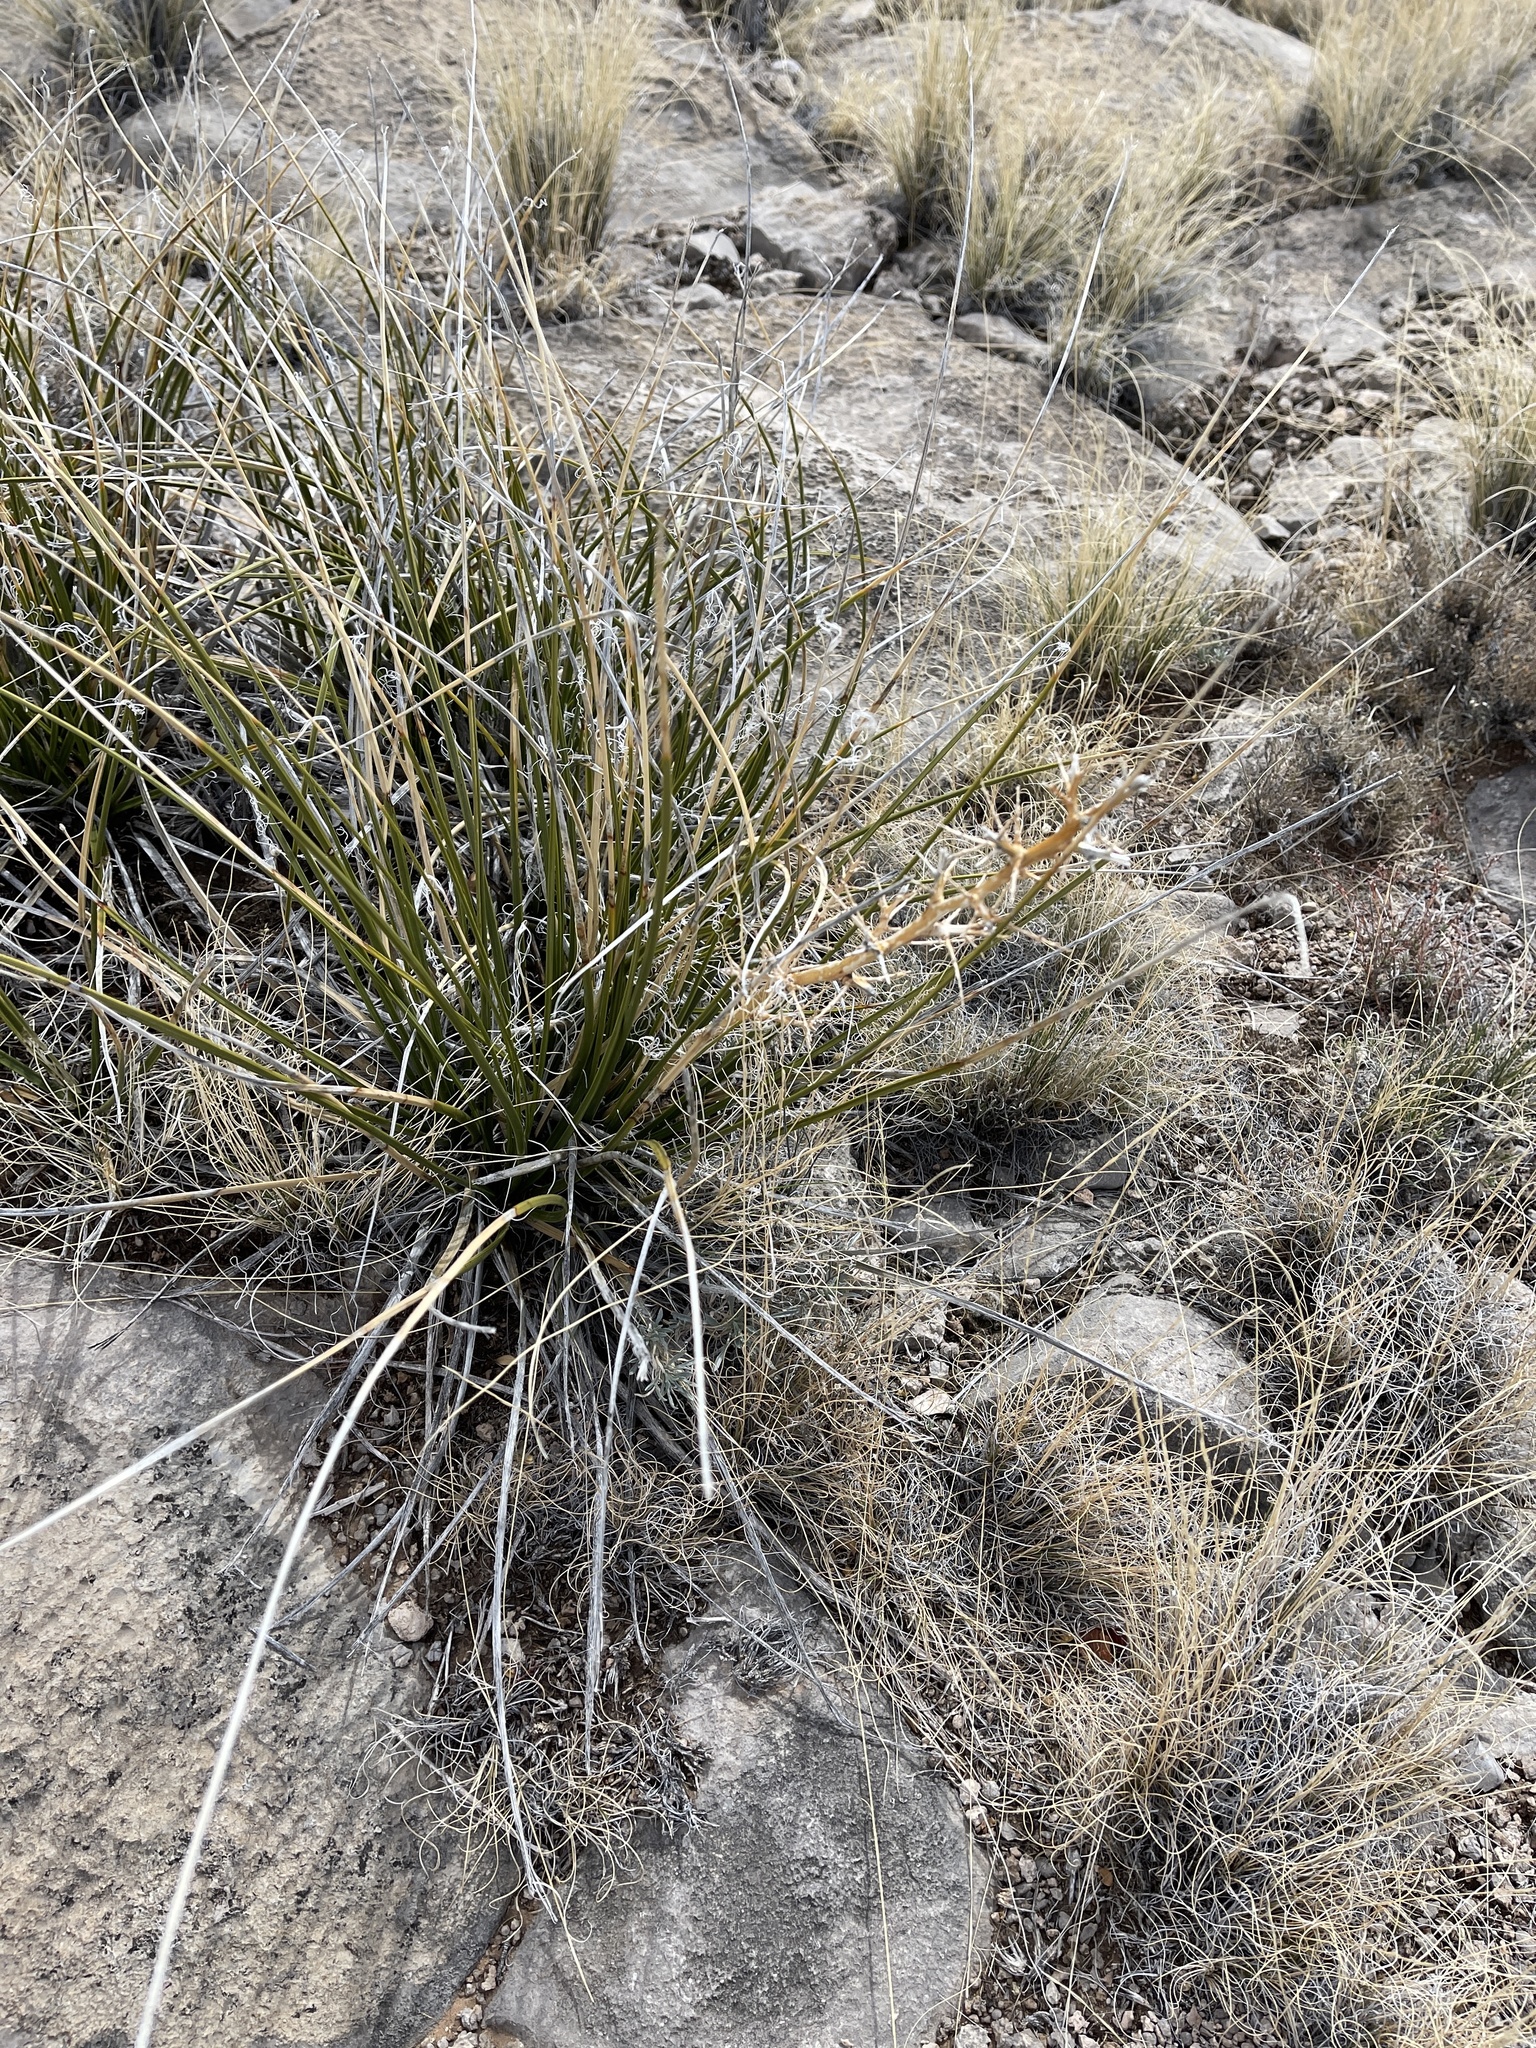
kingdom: Plantae
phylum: Tracheophyta
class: Liliopsida
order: Asparagales
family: Asparagaceae
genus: Nolina
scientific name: Nolina texana
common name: Texas sacahuiste
